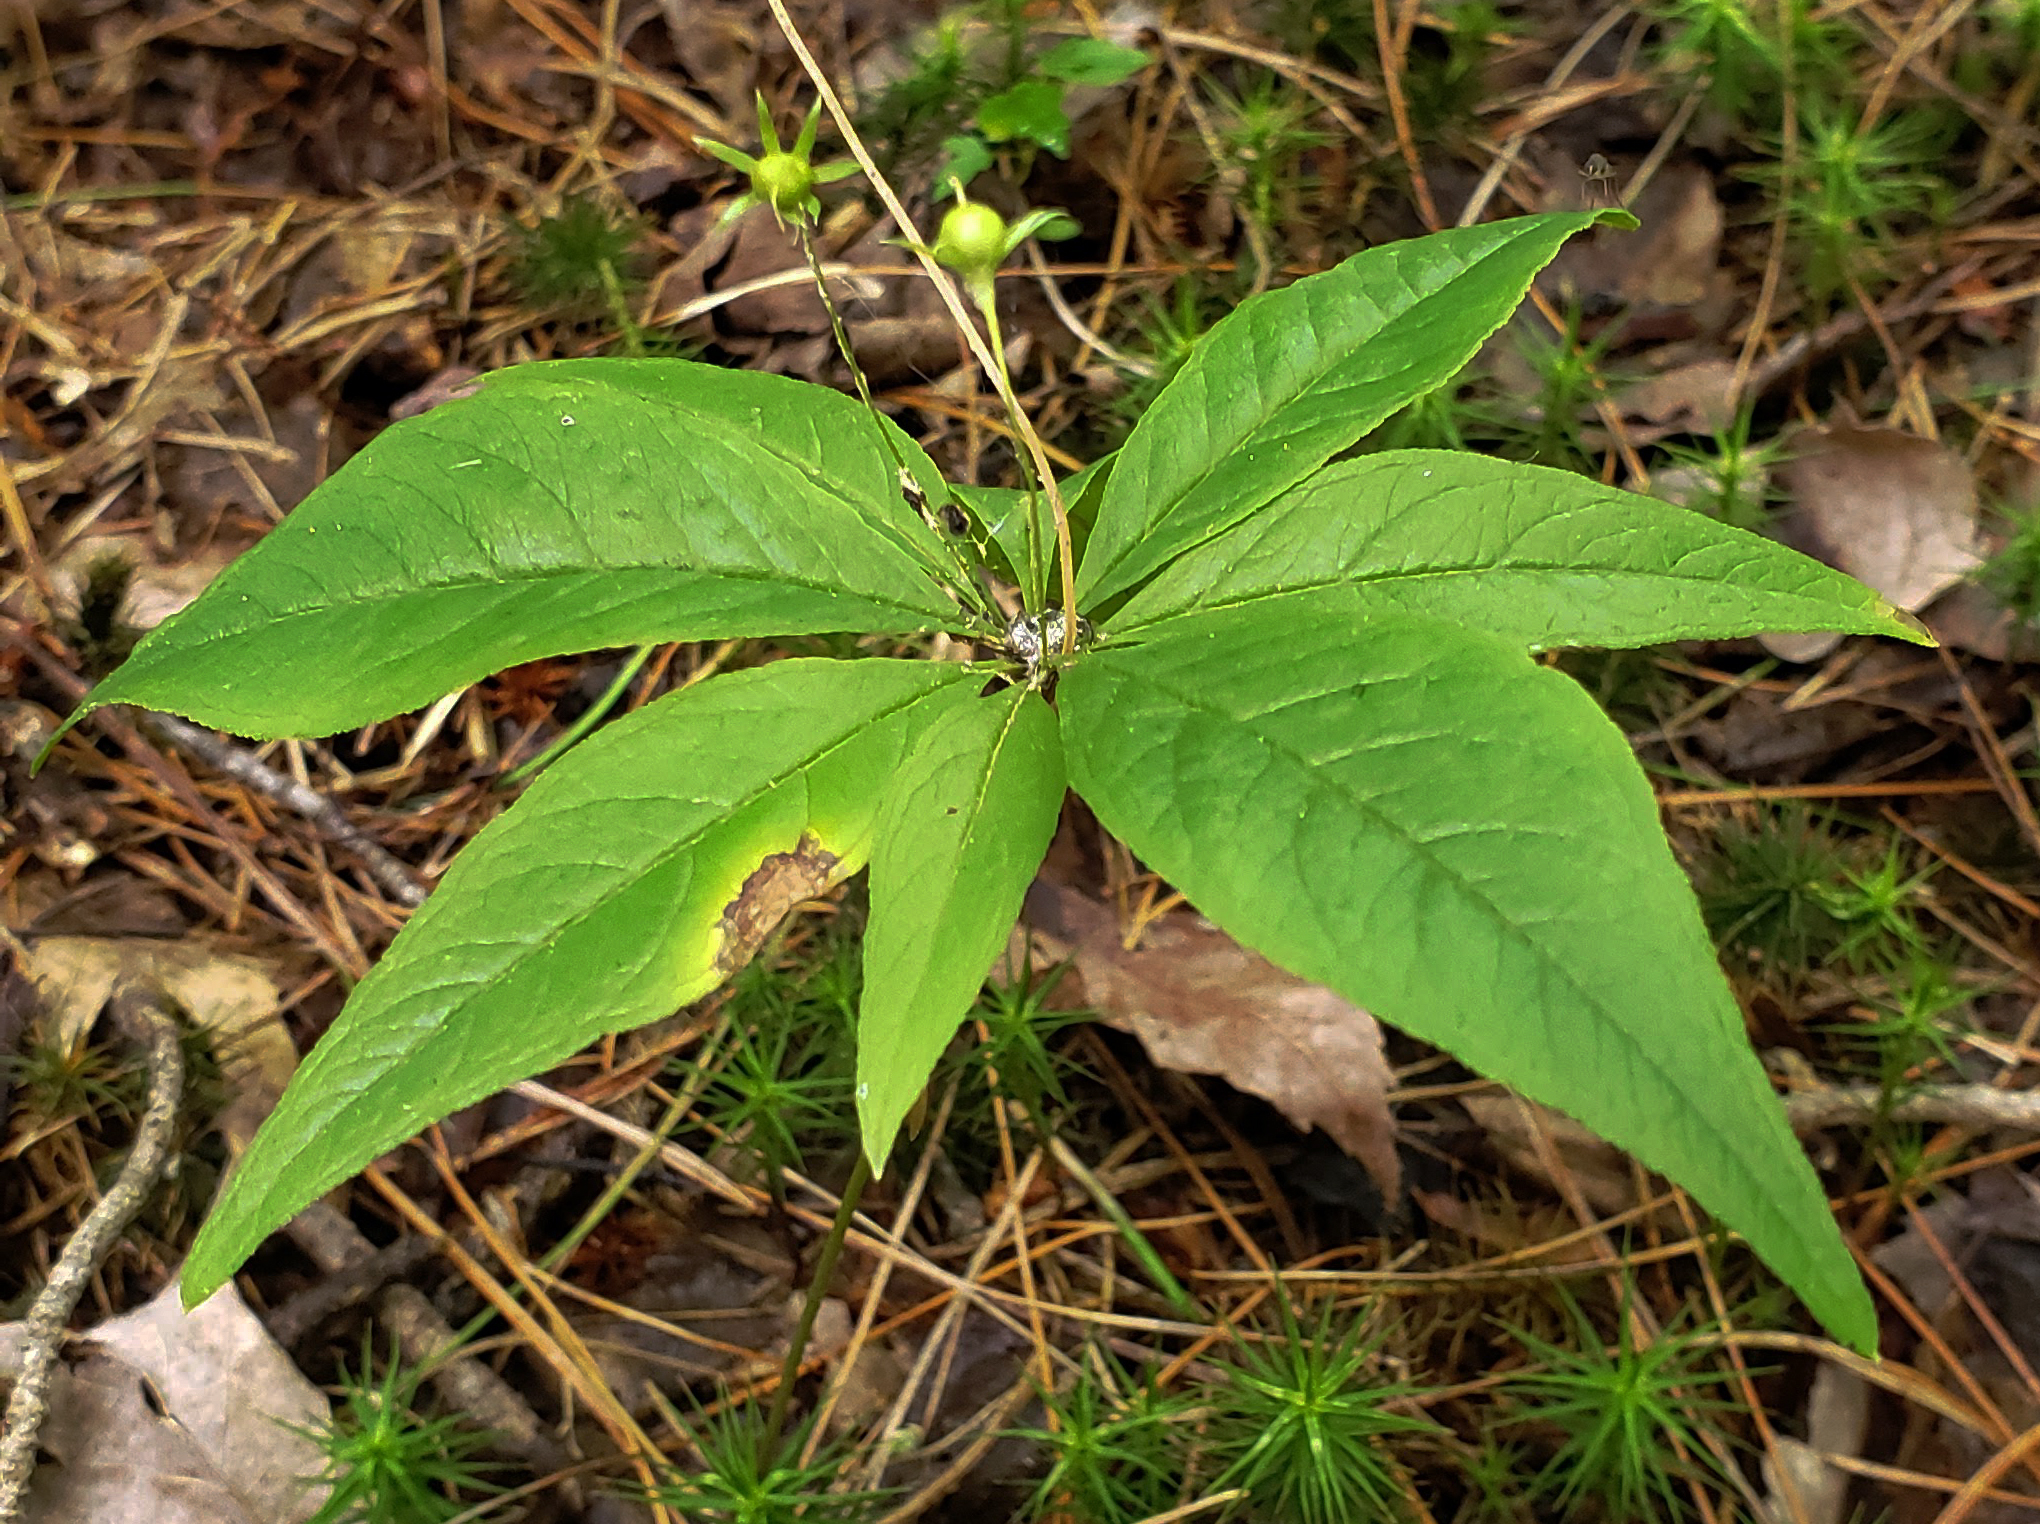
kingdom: Plantae
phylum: Tracheophyta
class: Magnoliopsida
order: Ericales
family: Primulaceae
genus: Lysimachia
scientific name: Lysimachia borealis
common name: American starflower
